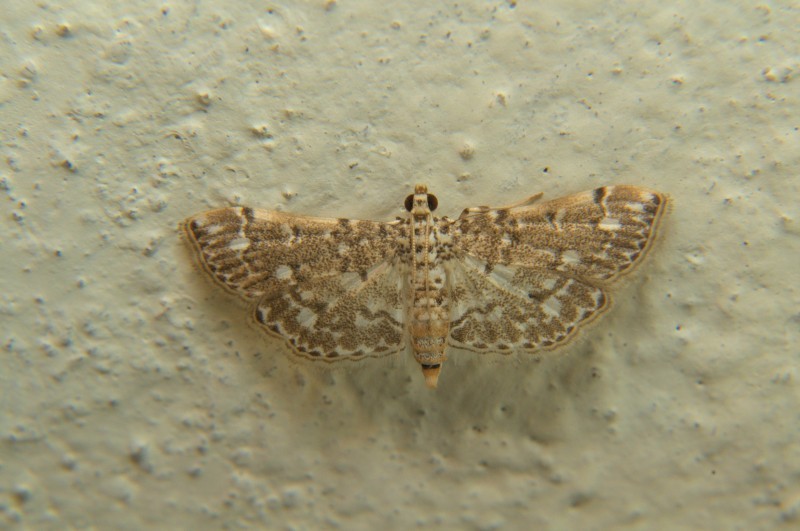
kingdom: Animalia
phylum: Arthropoda
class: Insecta
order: Lepidoptera
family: Crambidae
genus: Metoeca
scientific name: Metoeca foedalis
